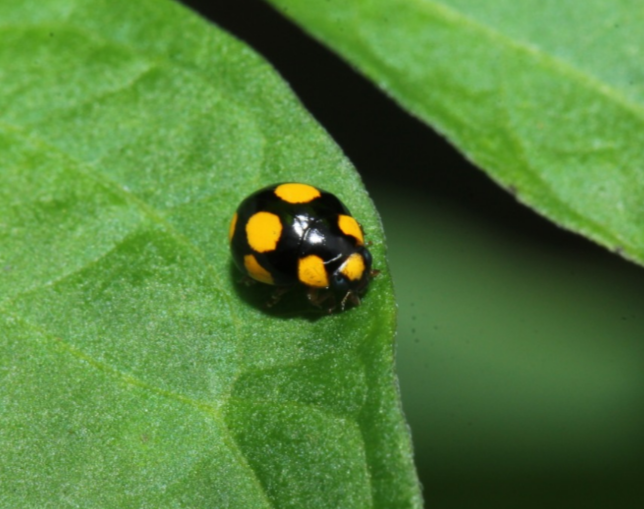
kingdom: Animalia
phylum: Arthropoda
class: Insecta
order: Coleoptera
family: Coccinellidae
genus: Brachiacantha
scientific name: Brachiacantha bistripustulata
